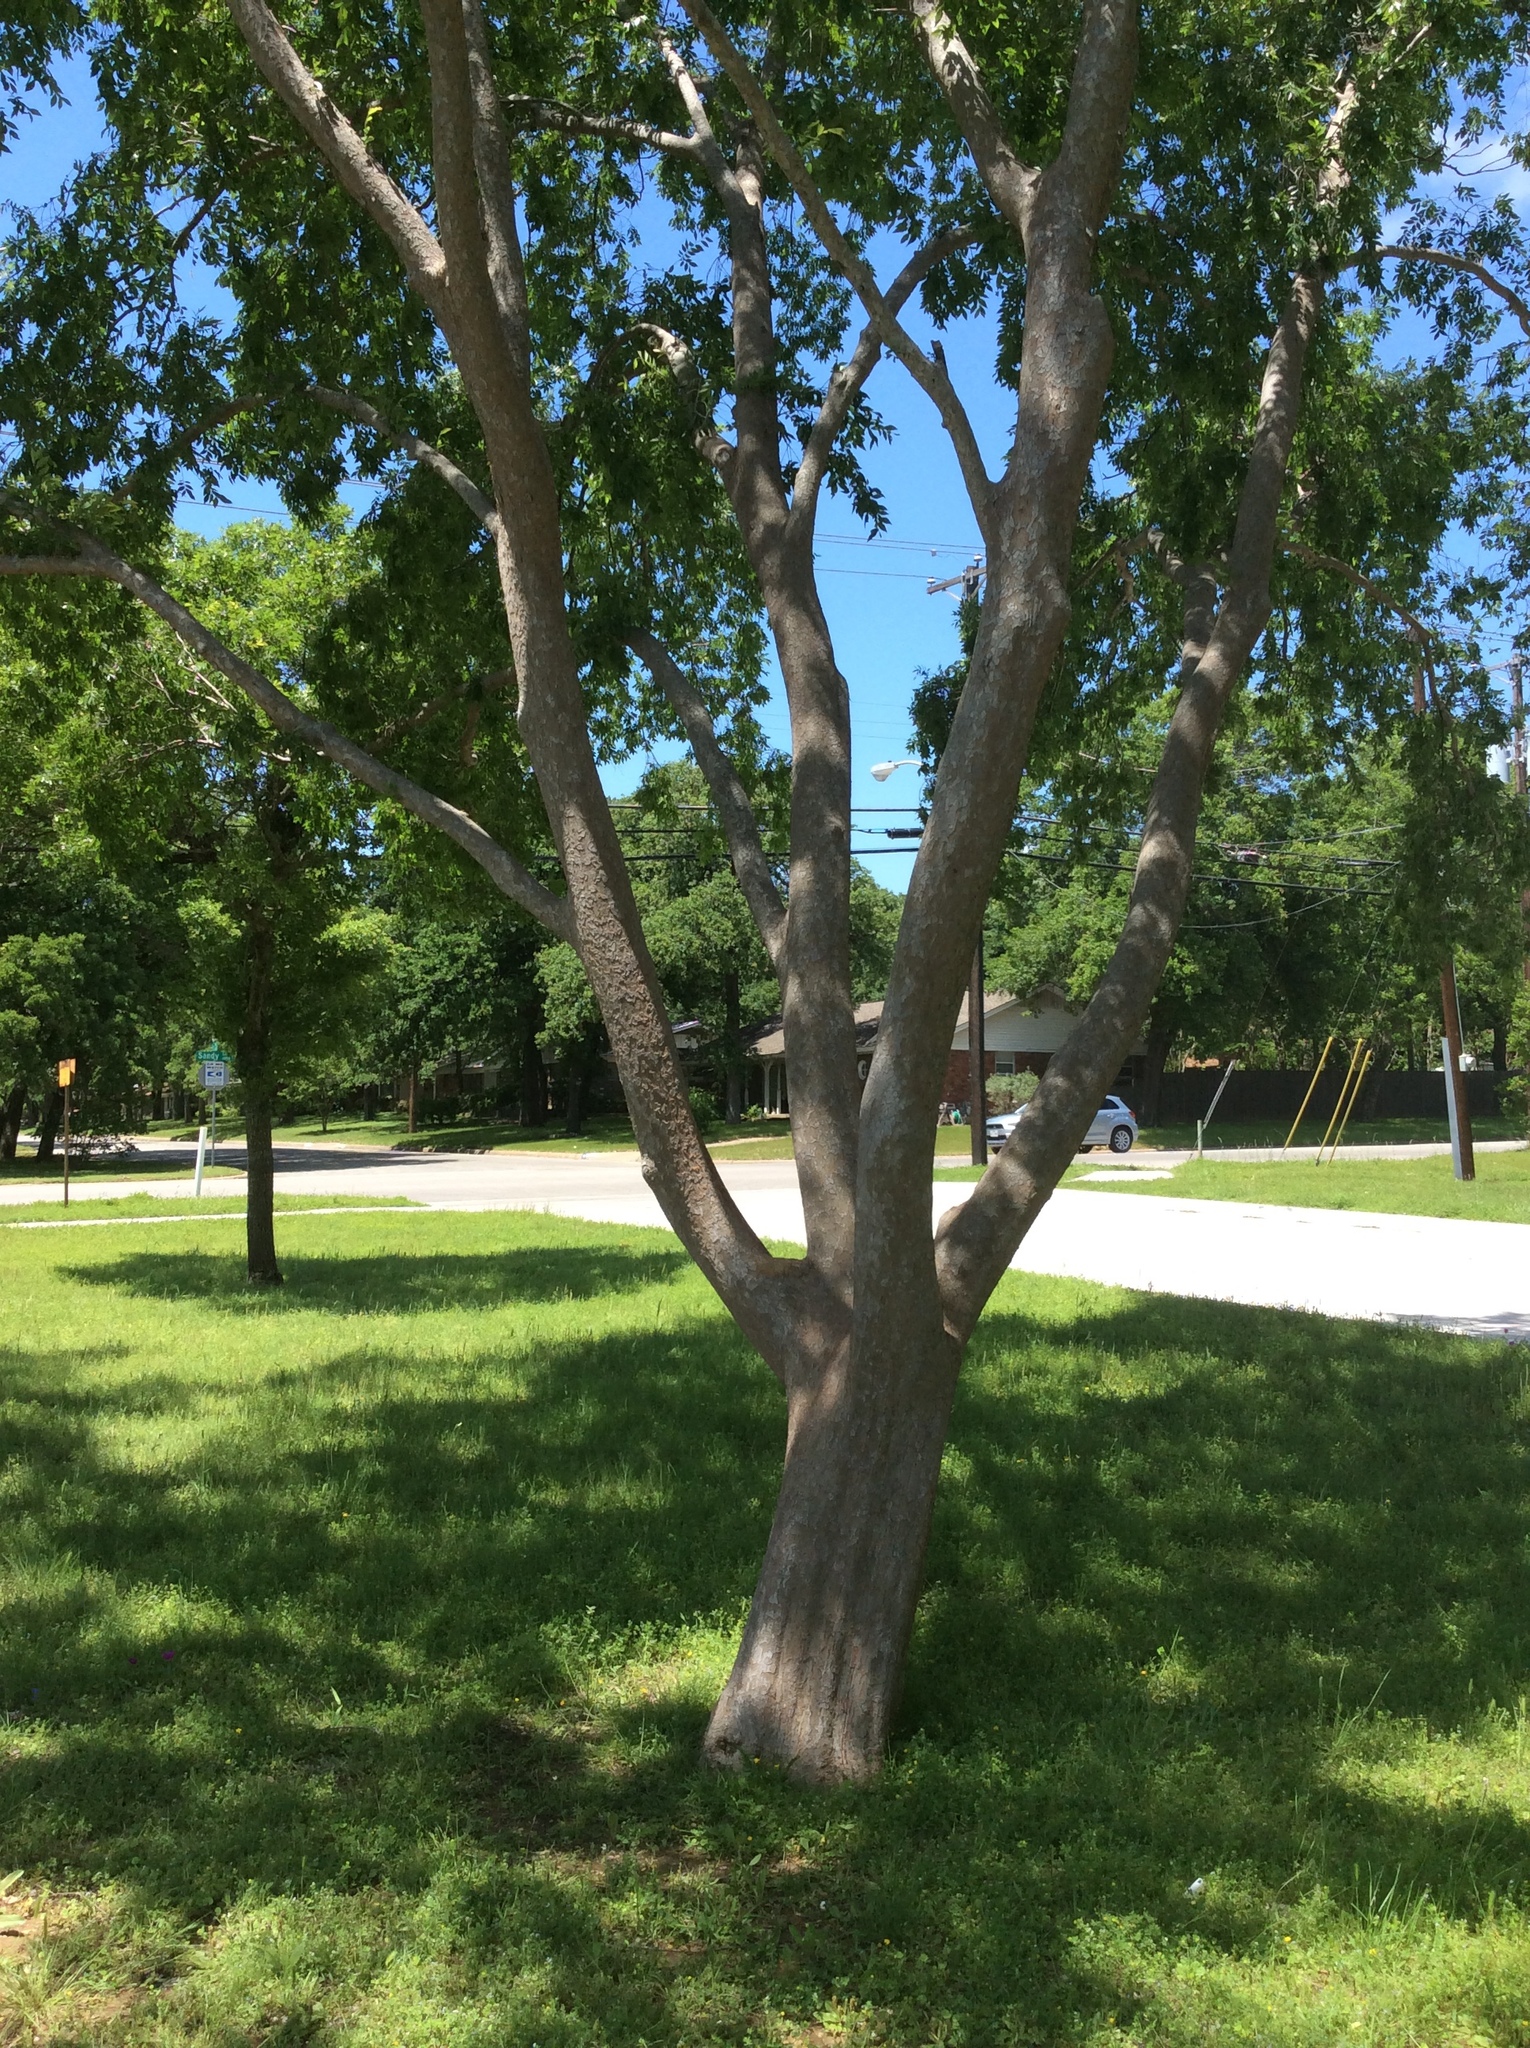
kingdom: Plantae
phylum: Tracheophyta
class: Magnoliopsida
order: Rosales
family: Ulmaceae
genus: Ulmus
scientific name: Ulmus parvifolia
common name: Chinese elm
